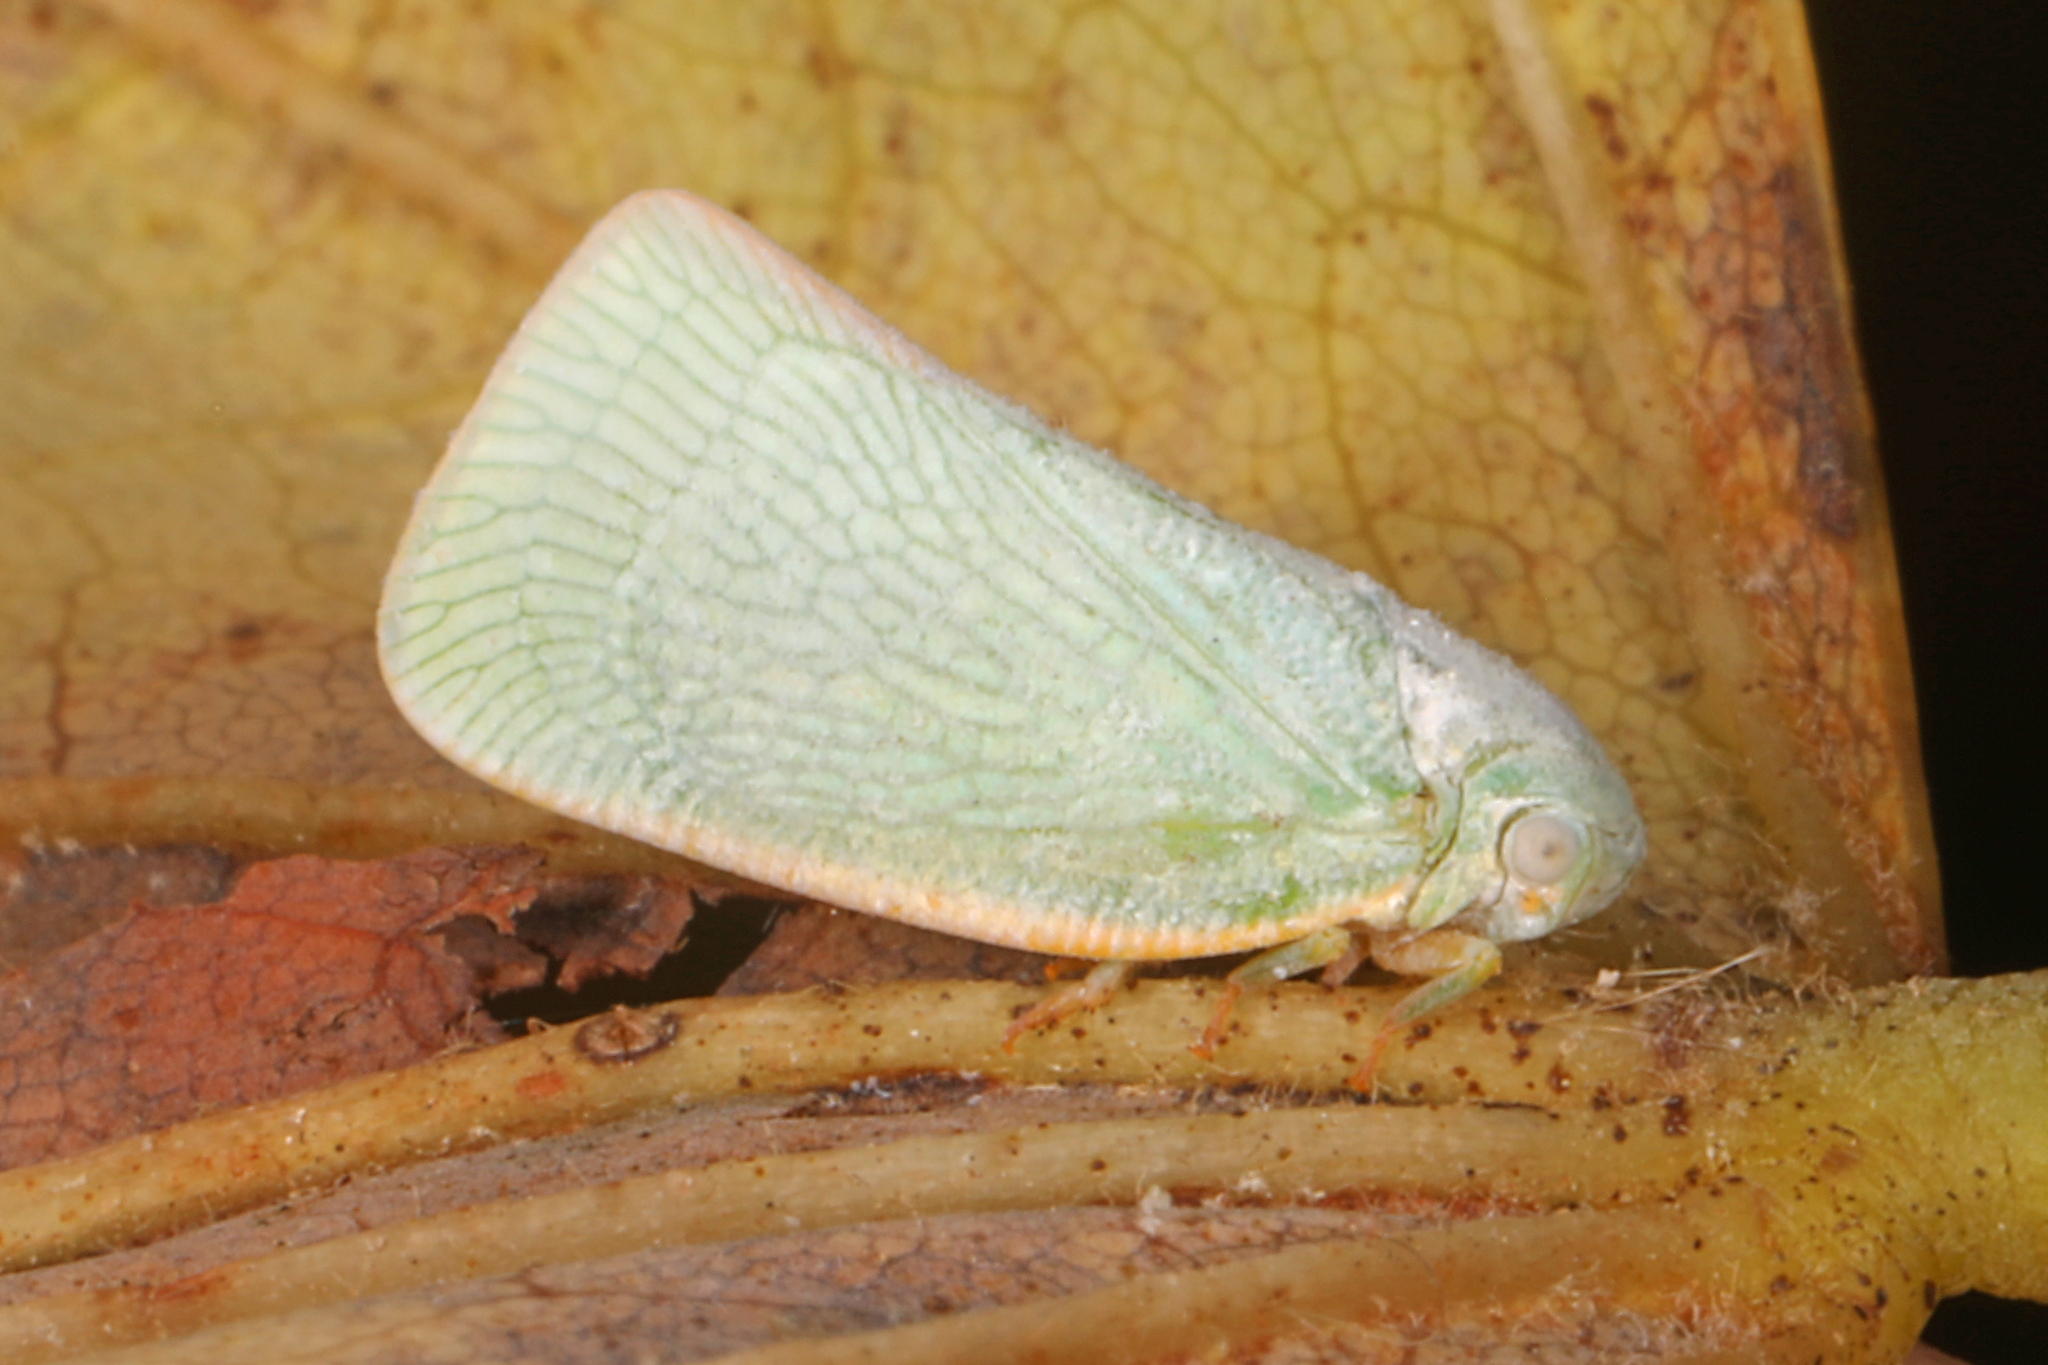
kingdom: Animalia
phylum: Arthropoda
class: Insecta
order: Hemiptera
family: Flatidae
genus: Flatormenis
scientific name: Flatormenis proxima
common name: Northern flatid planthopper
